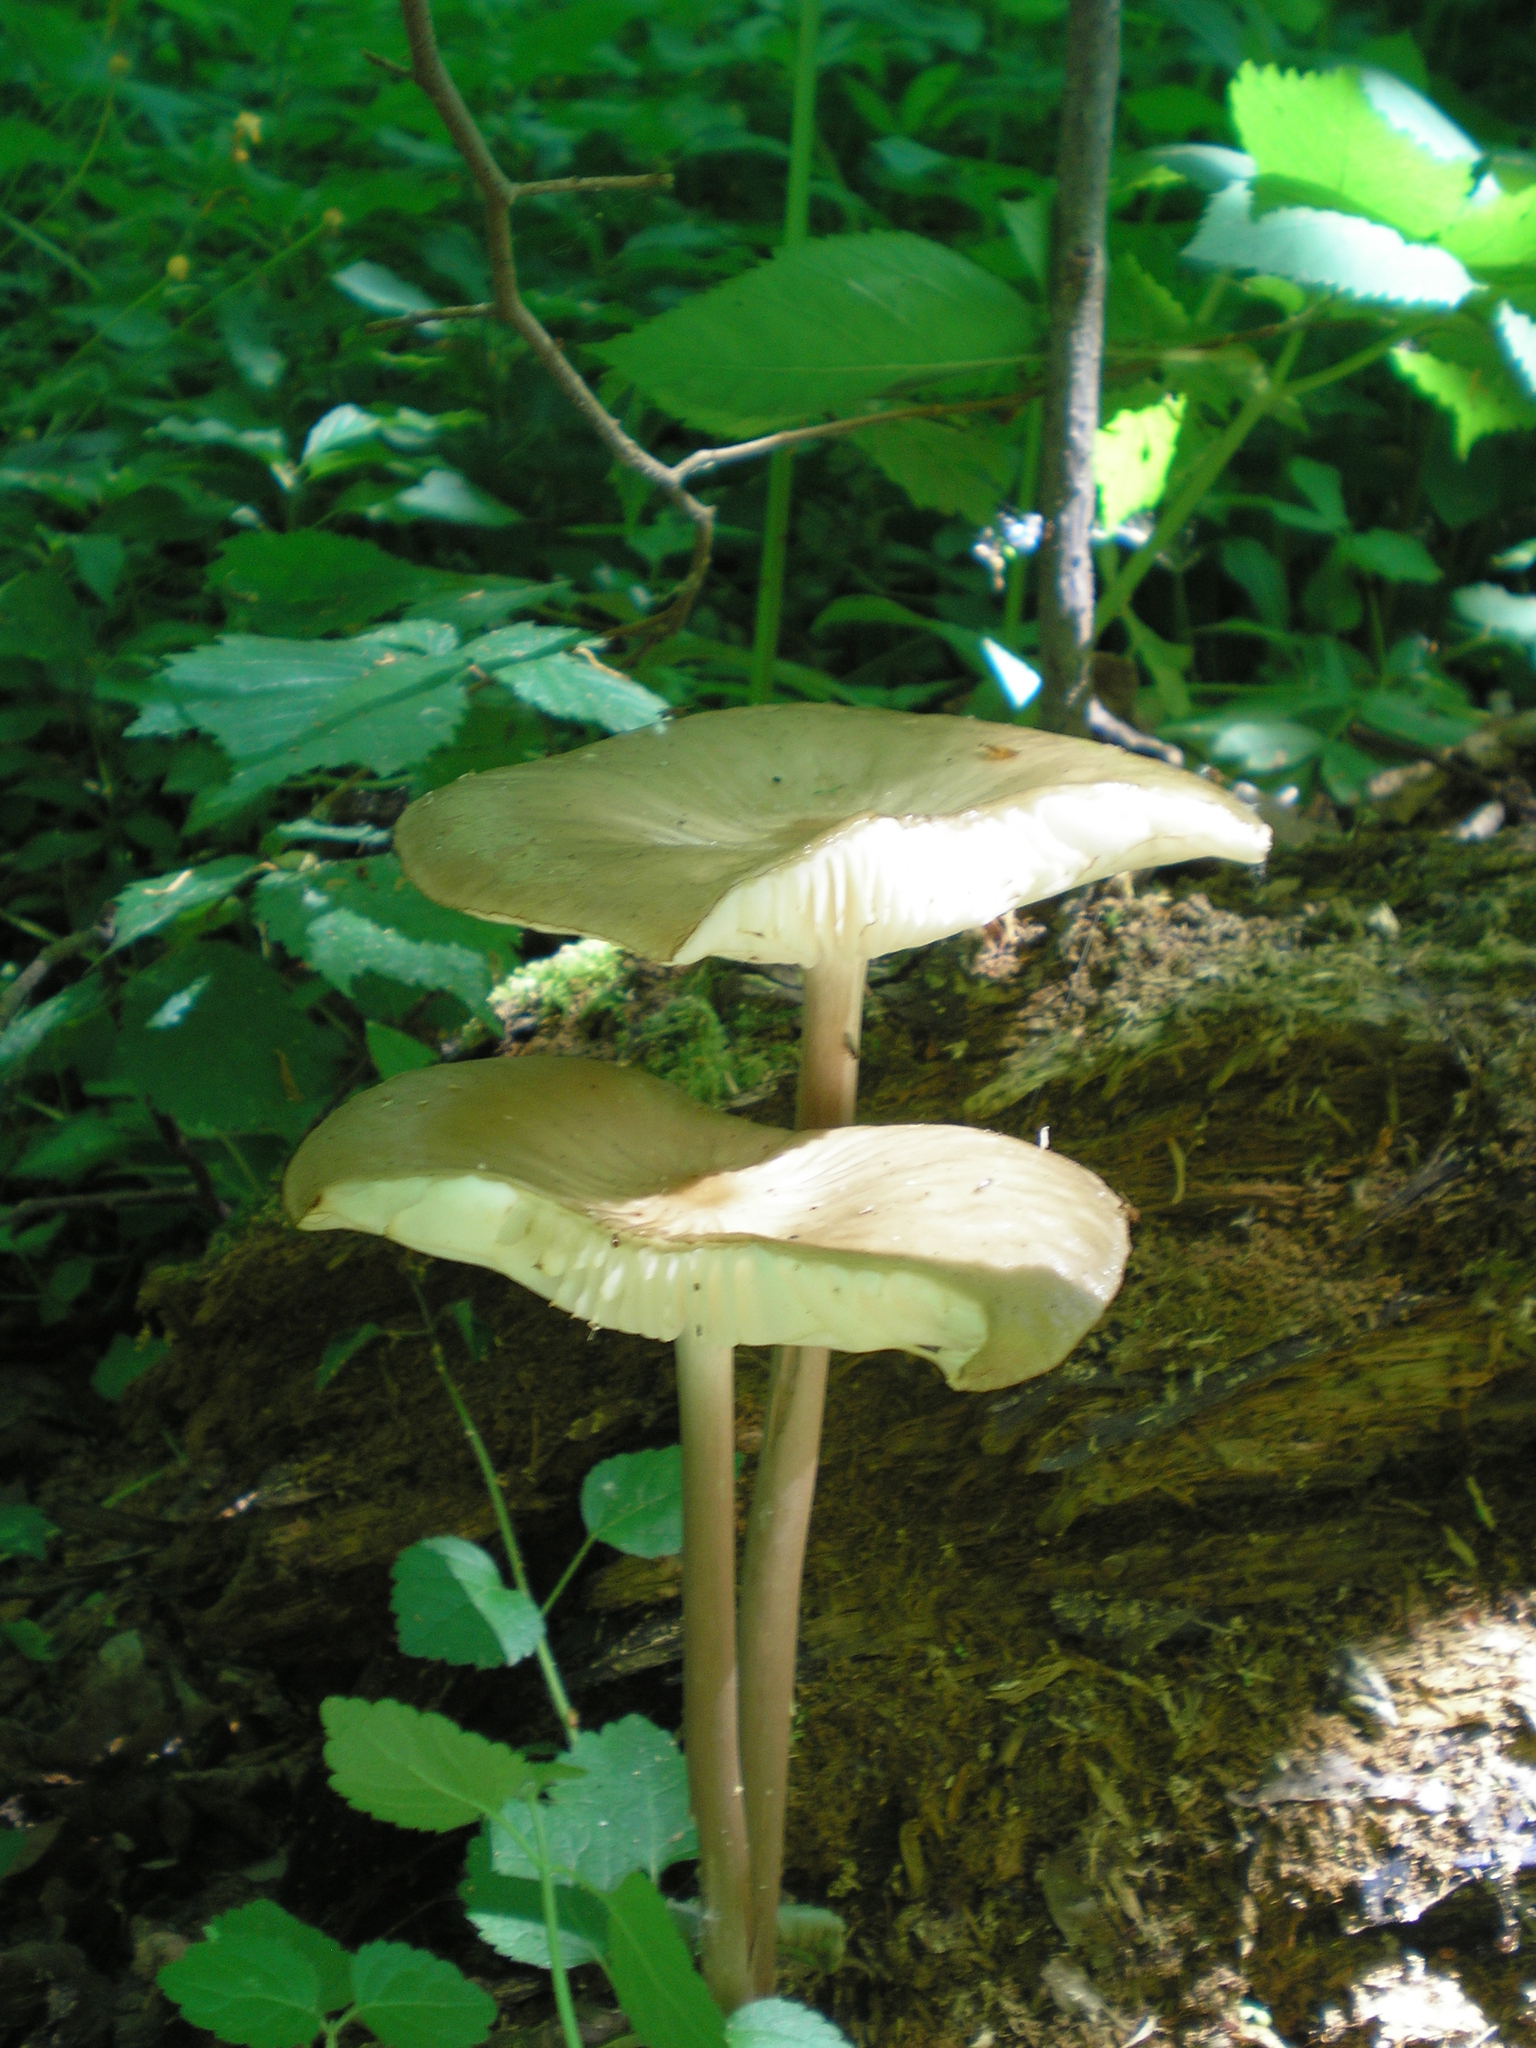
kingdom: Fungi
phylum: Basidiomycota
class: Agaricomycetes
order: Agaricales
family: Physalacriaceae
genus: Hymenopellis
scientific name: Hymenopellis radicata
